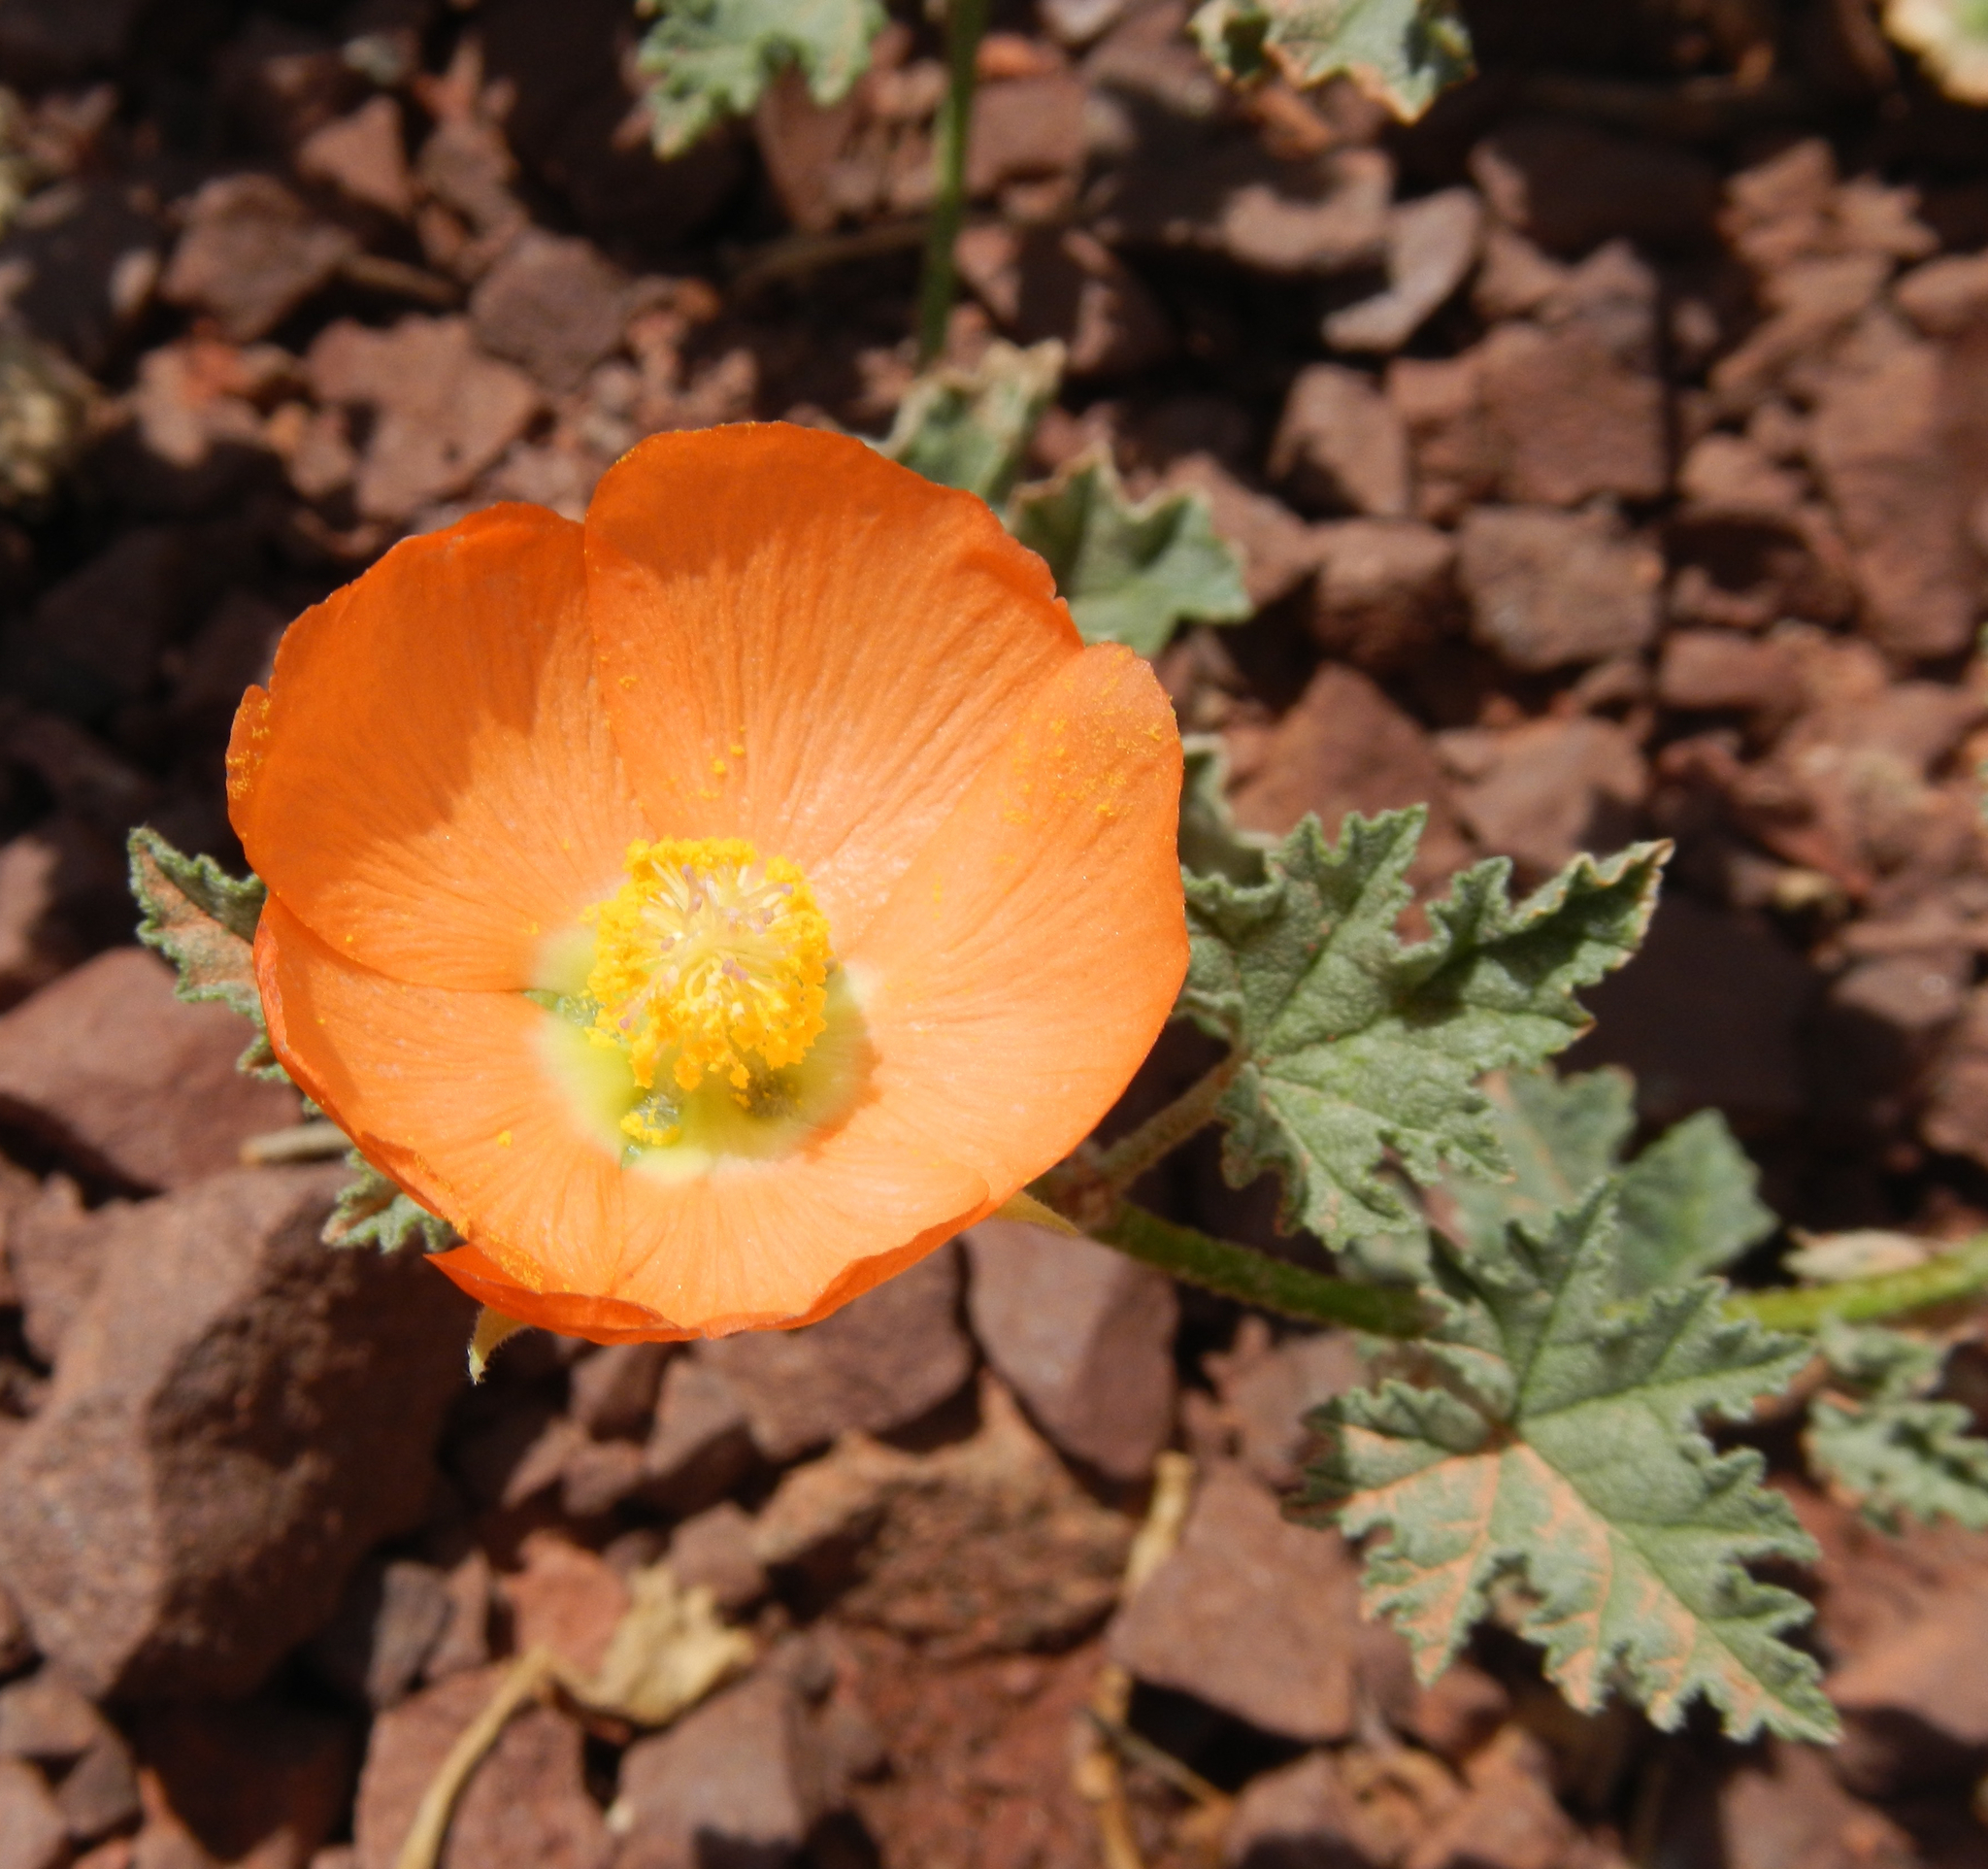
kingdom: Plantae
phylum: Tracheophyta
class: Magnoliopsida
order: Malvales
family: Malvaceae
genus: Sphaeralcea
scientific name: Sphaeralcea ambigua
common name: Apricot globe-mallow
